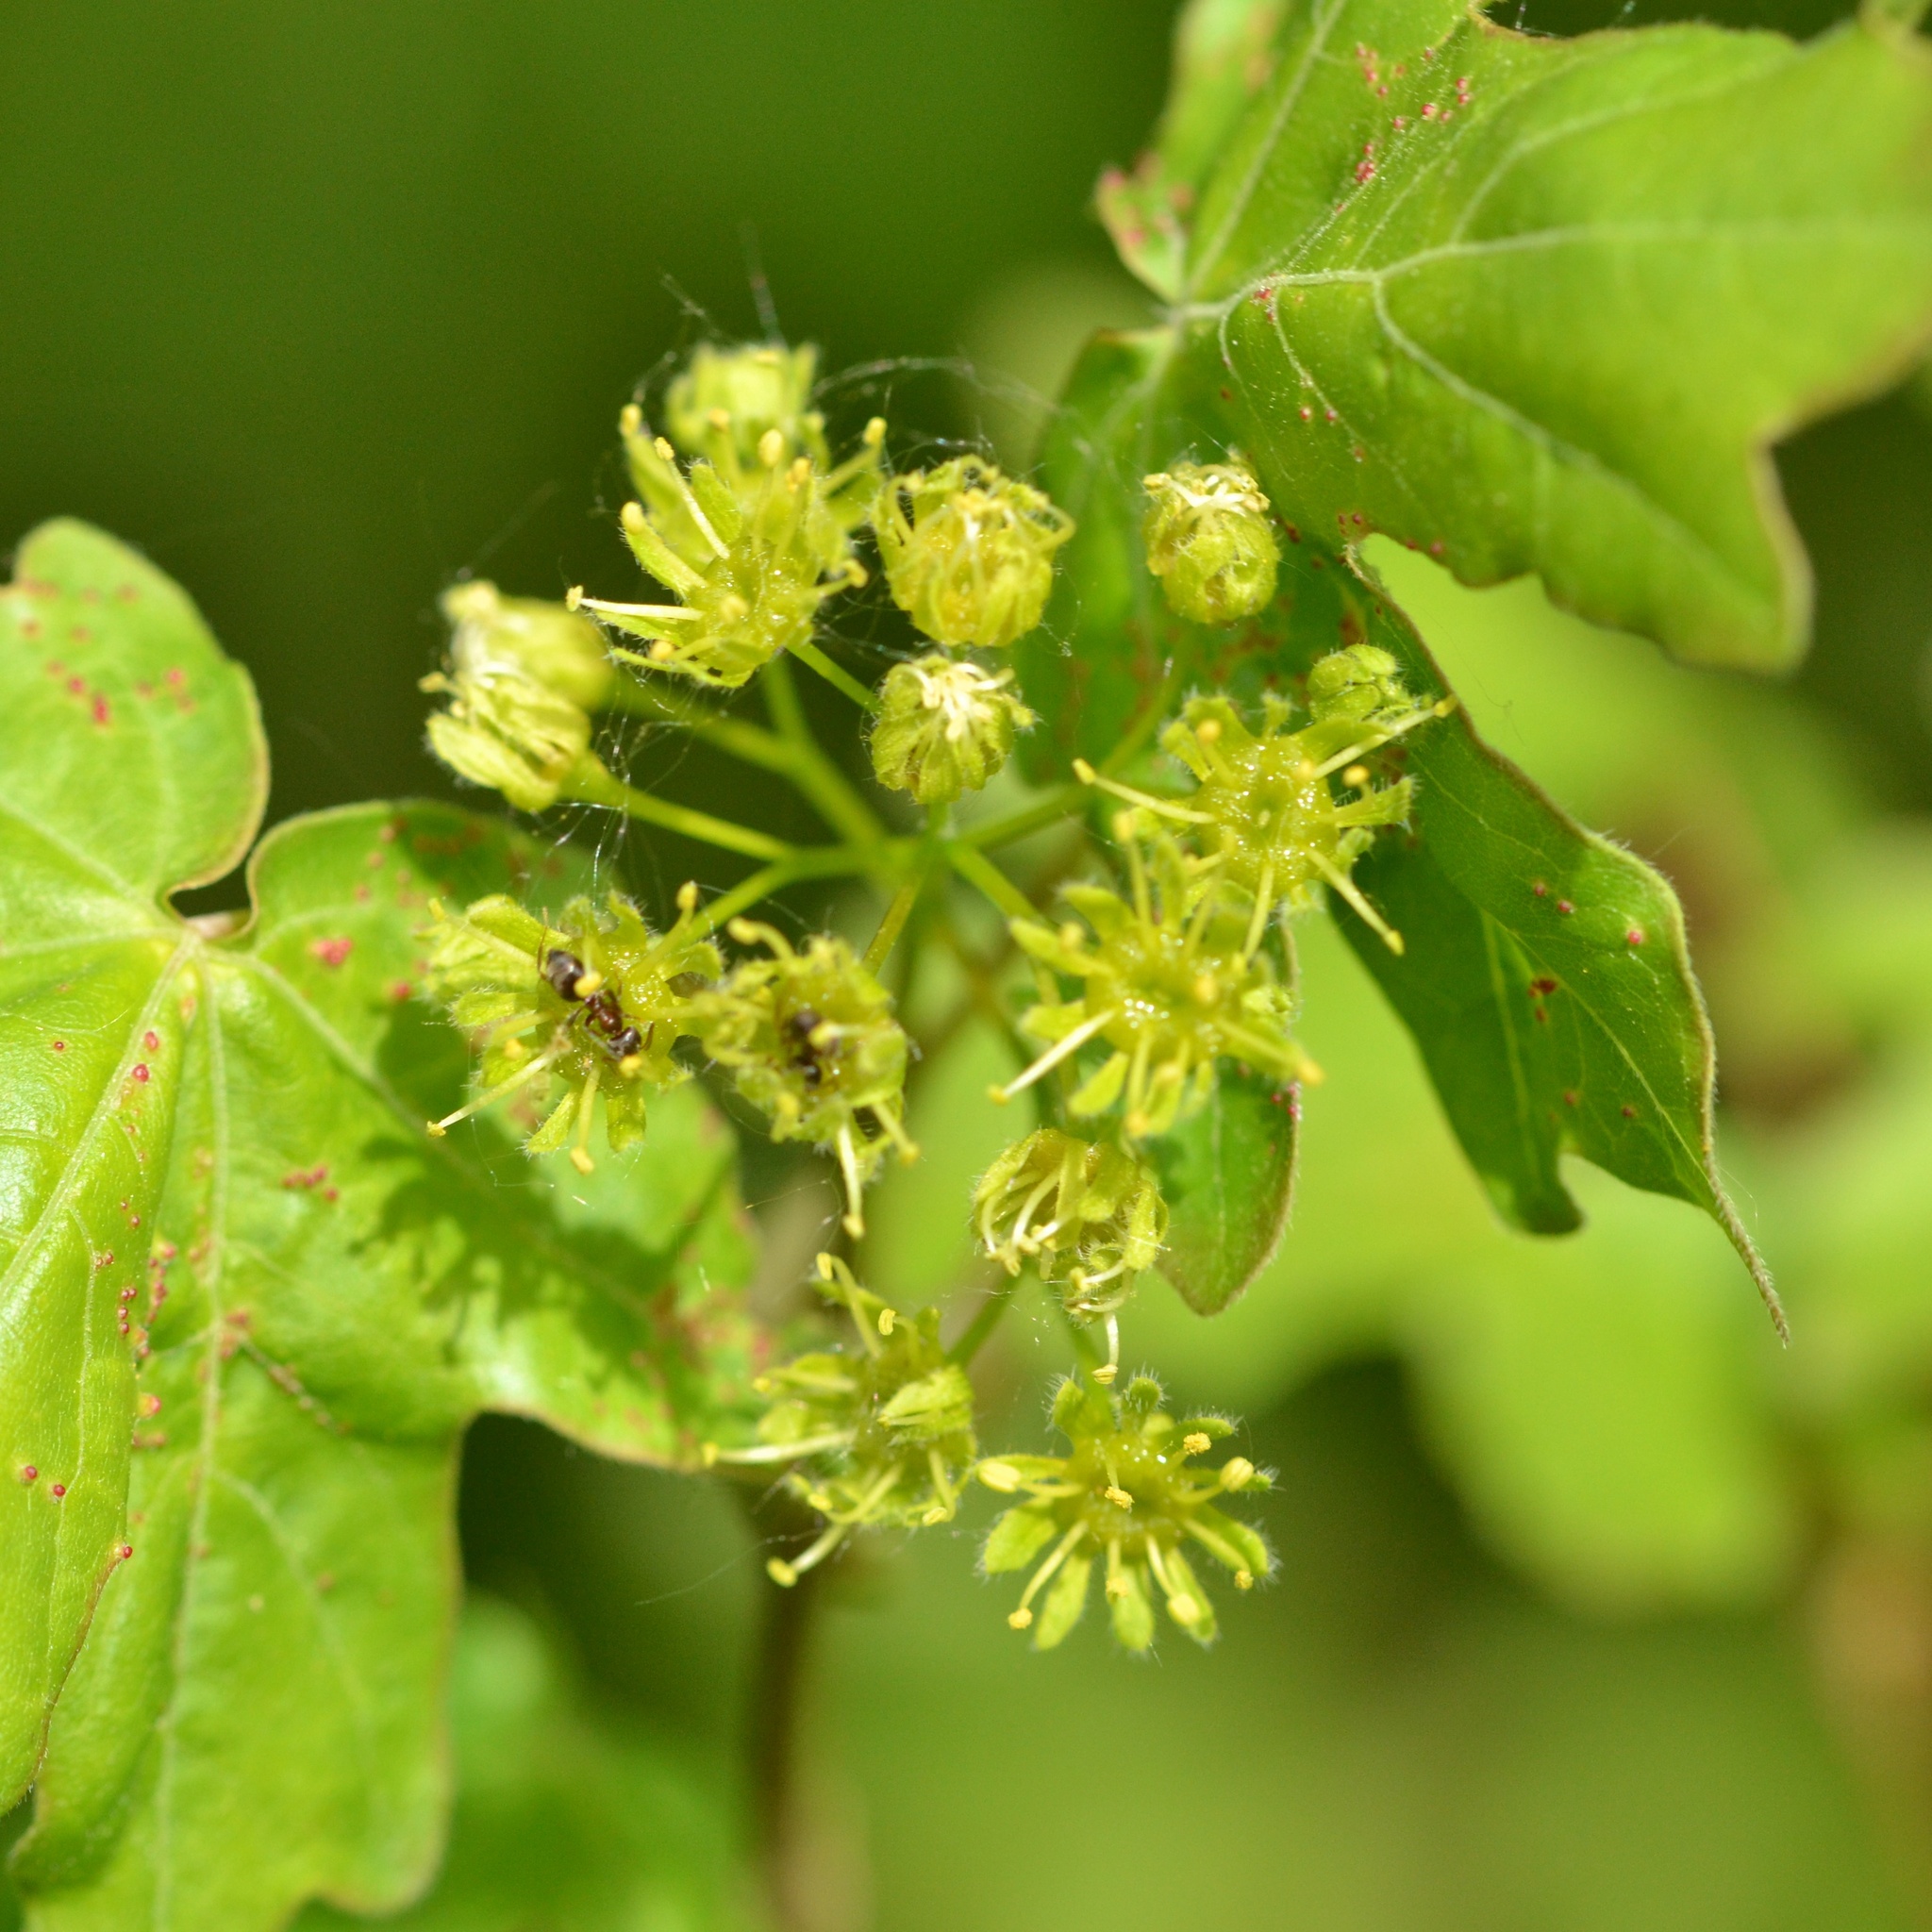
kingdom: Plantae
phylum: Tracheophyta
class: Magnoliopsida
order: Sapindales
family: Sapindaceae
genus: Acer
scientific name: Acer campestre
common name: Field maple
